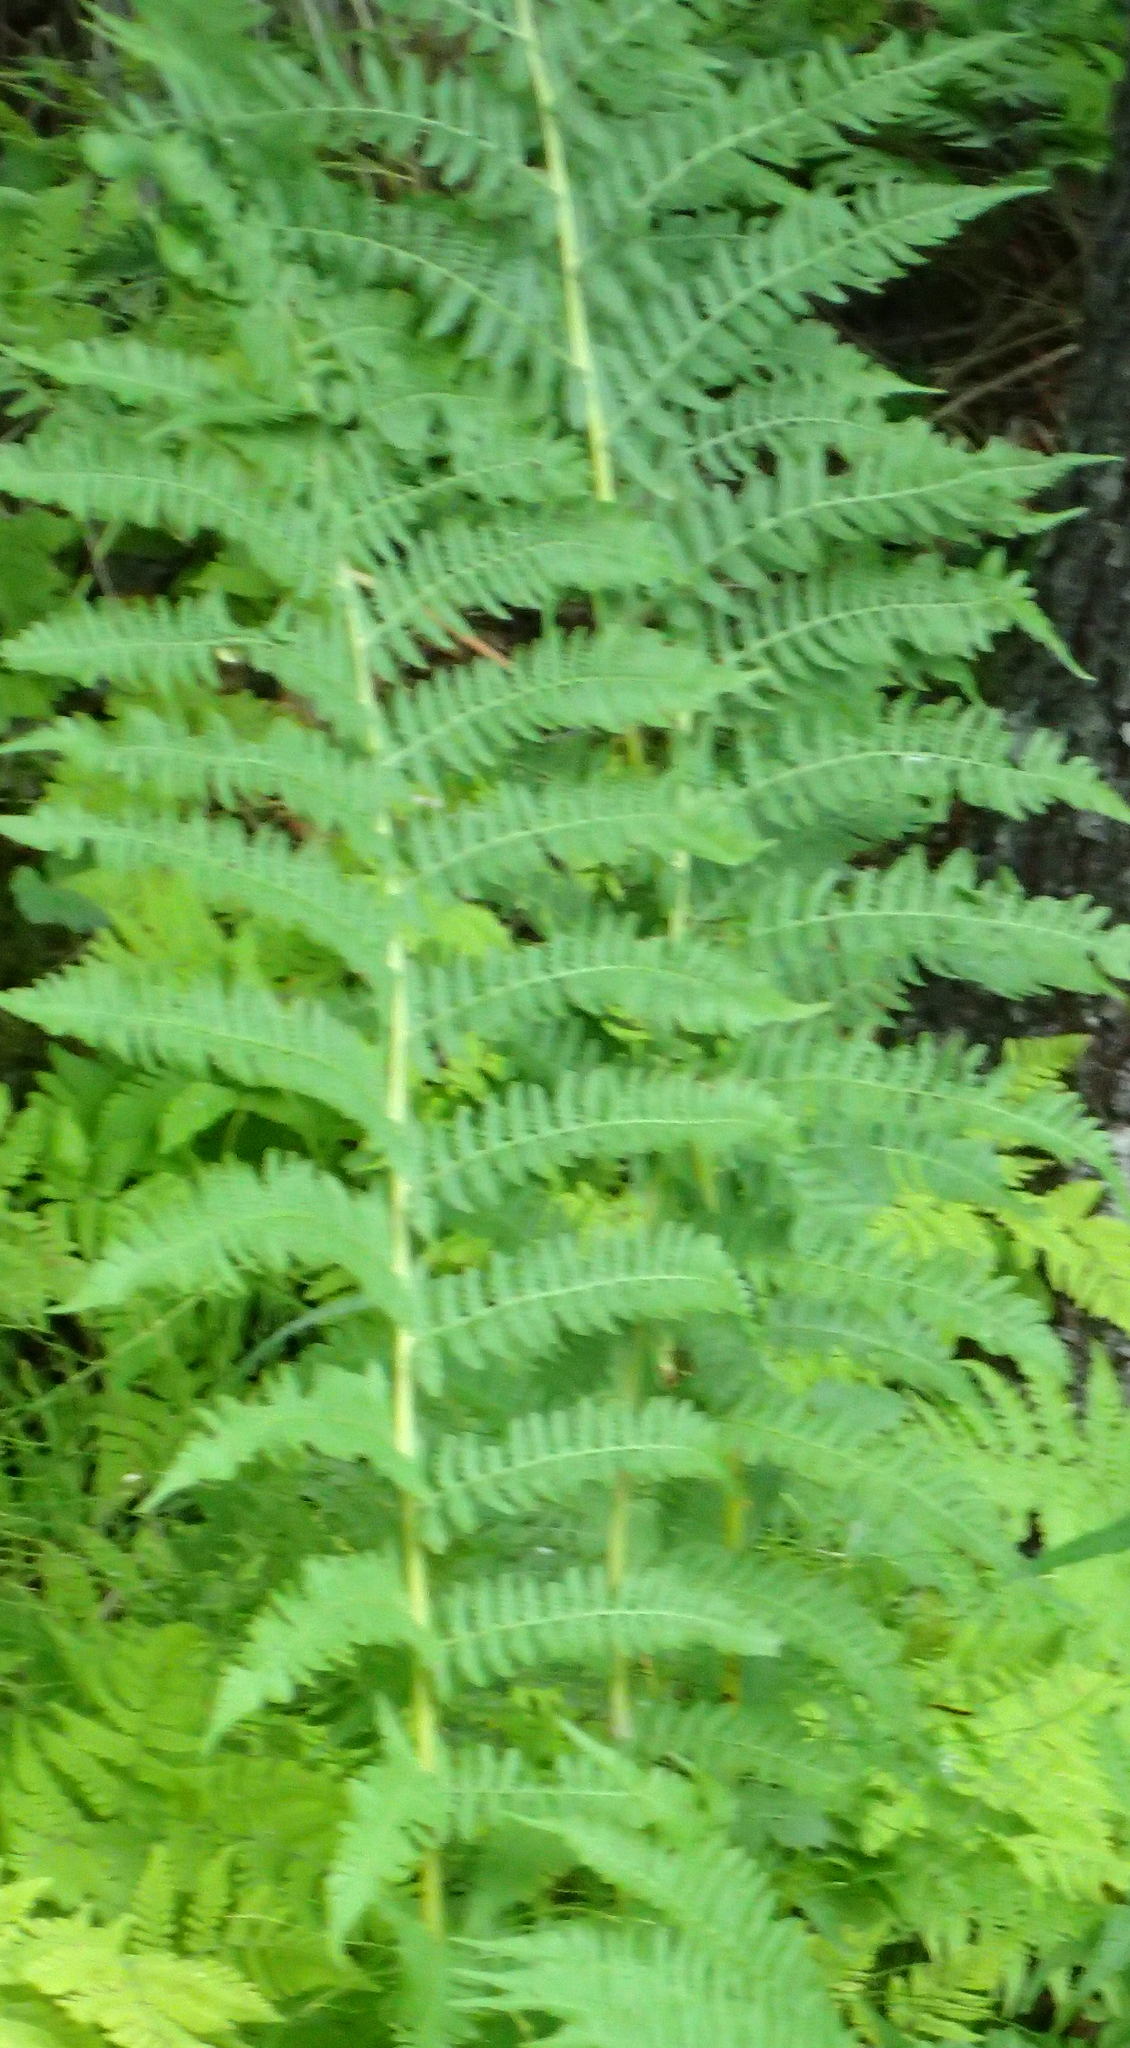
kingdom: Plantae
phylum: Tracheophyta
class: Polypodiopsida
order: Polypodiales
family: Athyriaceae
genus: Athyrium
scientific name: Athyrium filix-femina
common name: Lady fern
